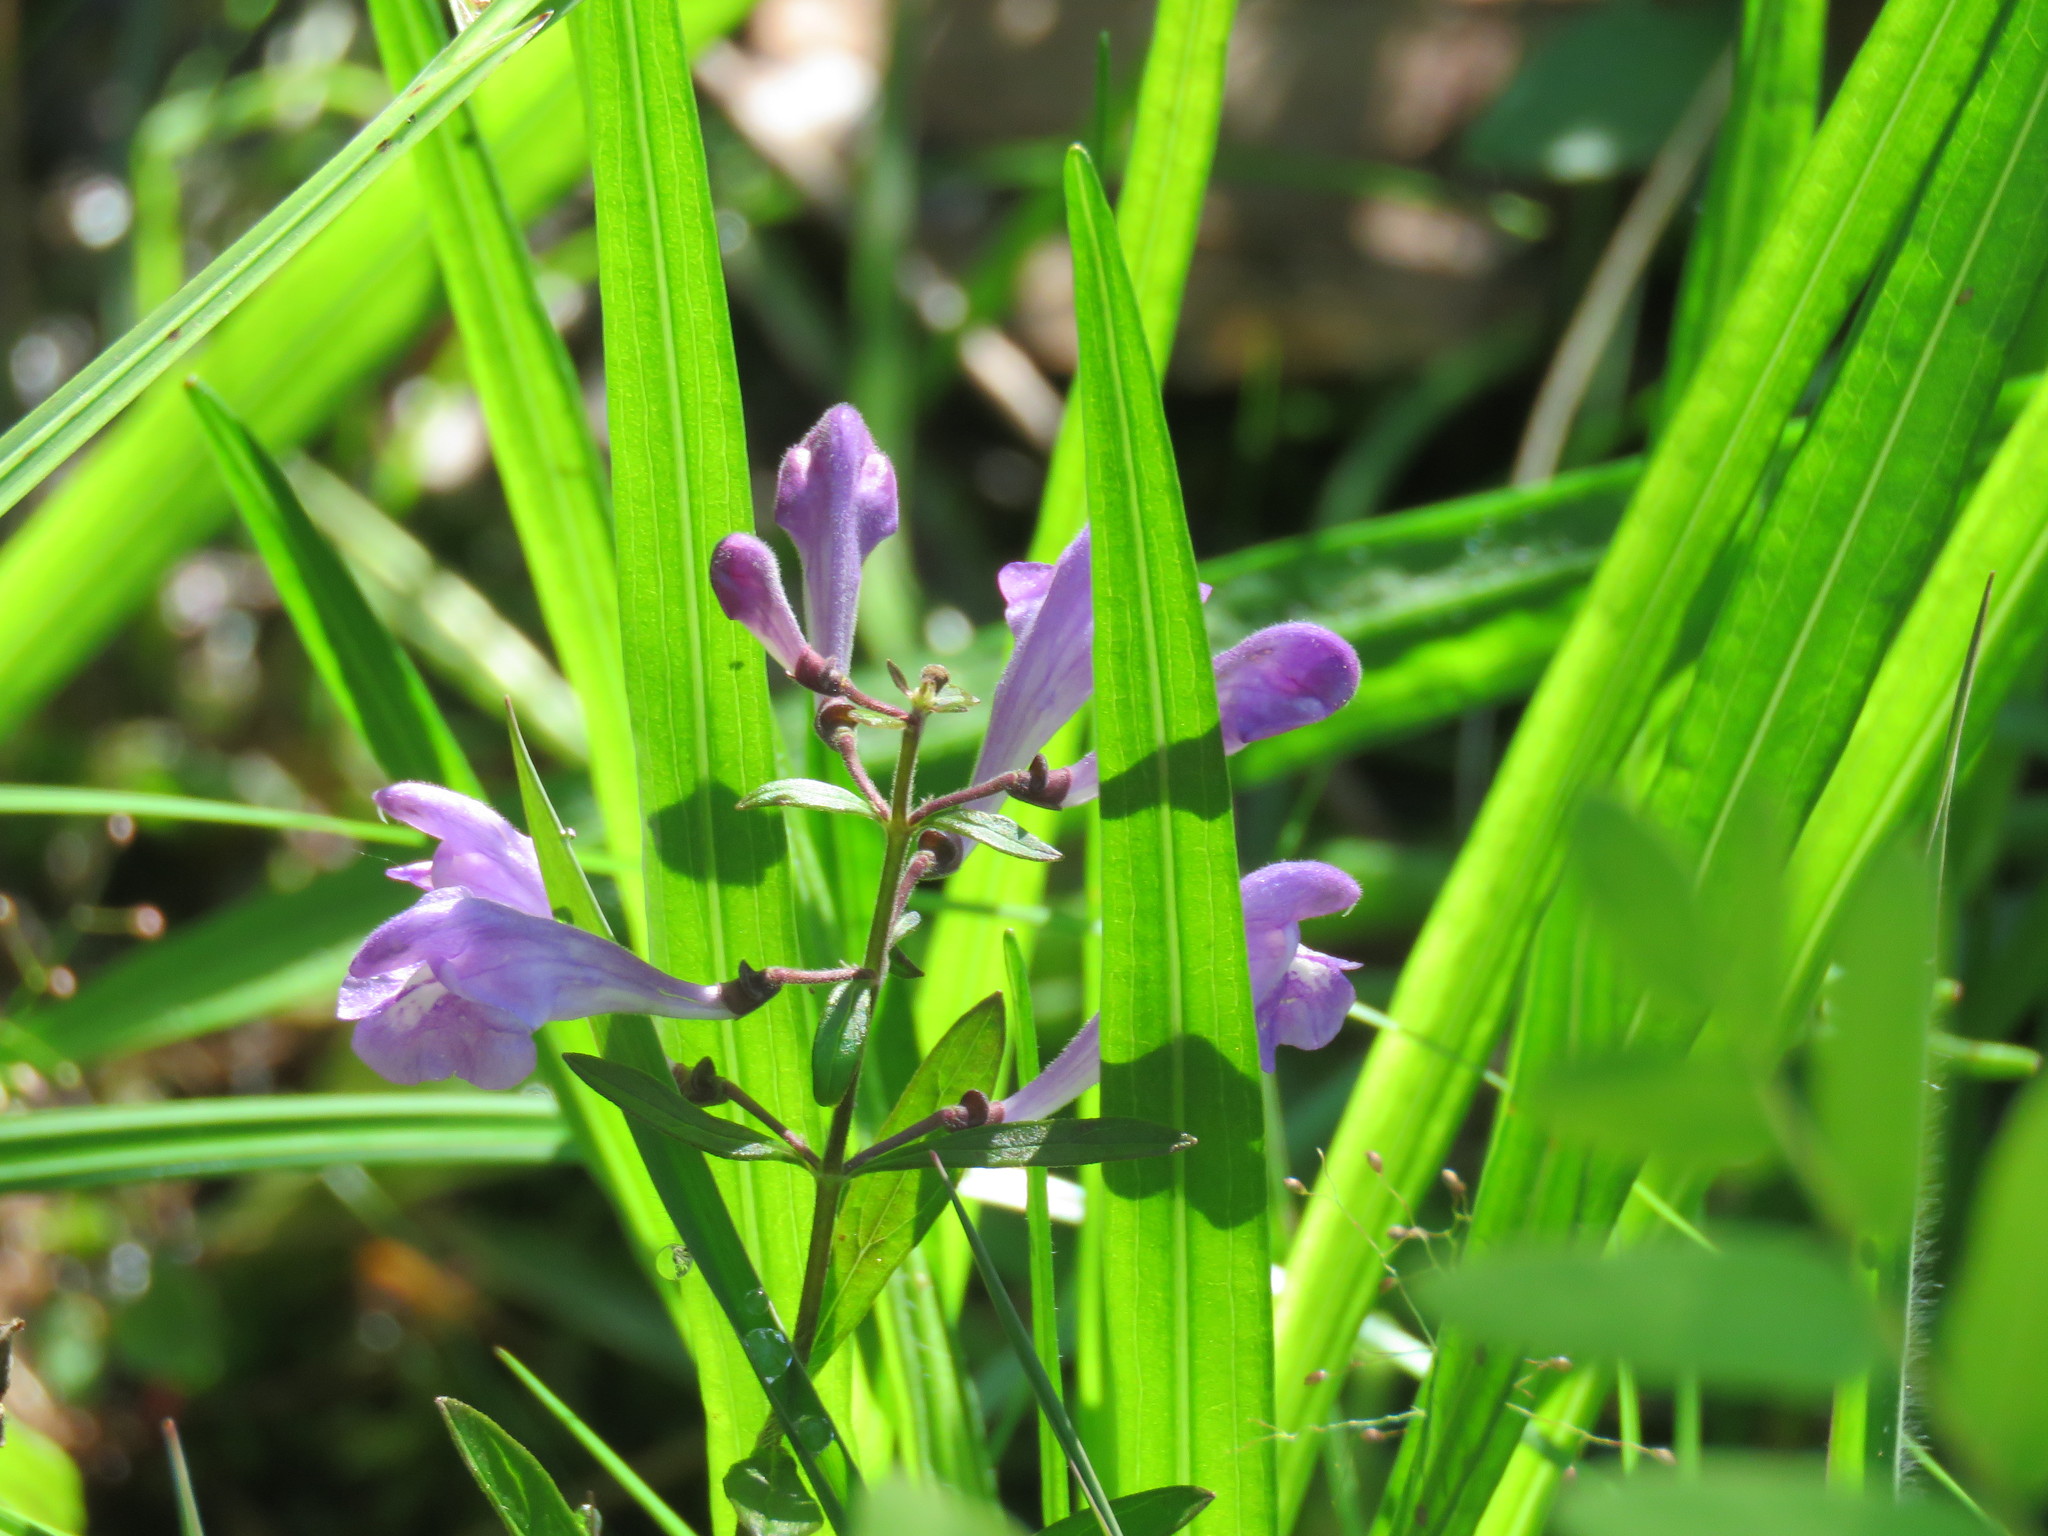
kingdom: Plantae
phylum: Tracheophyta
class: Magnoliopsida
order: Lamiales
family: Lamiaceae
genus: Scutellaria
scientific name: Scutellaria integrifolia
